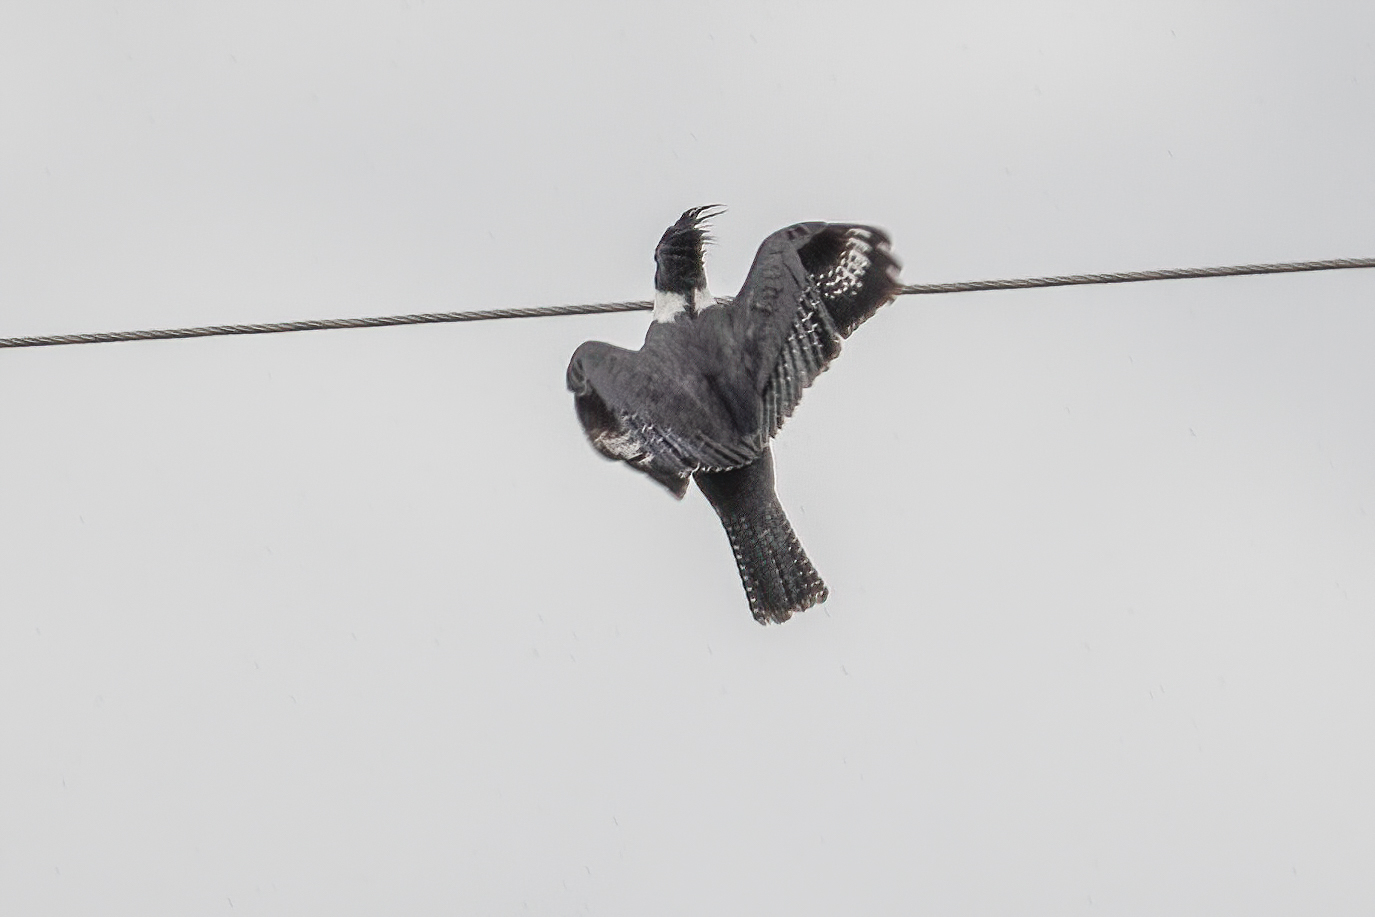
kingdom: Animalia
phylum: Chordata
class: Aves
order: Coraciiformes
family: Alcedinidae
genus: Megaceryle
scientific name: Megaceryle alcyon
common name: Belted kingfisher
